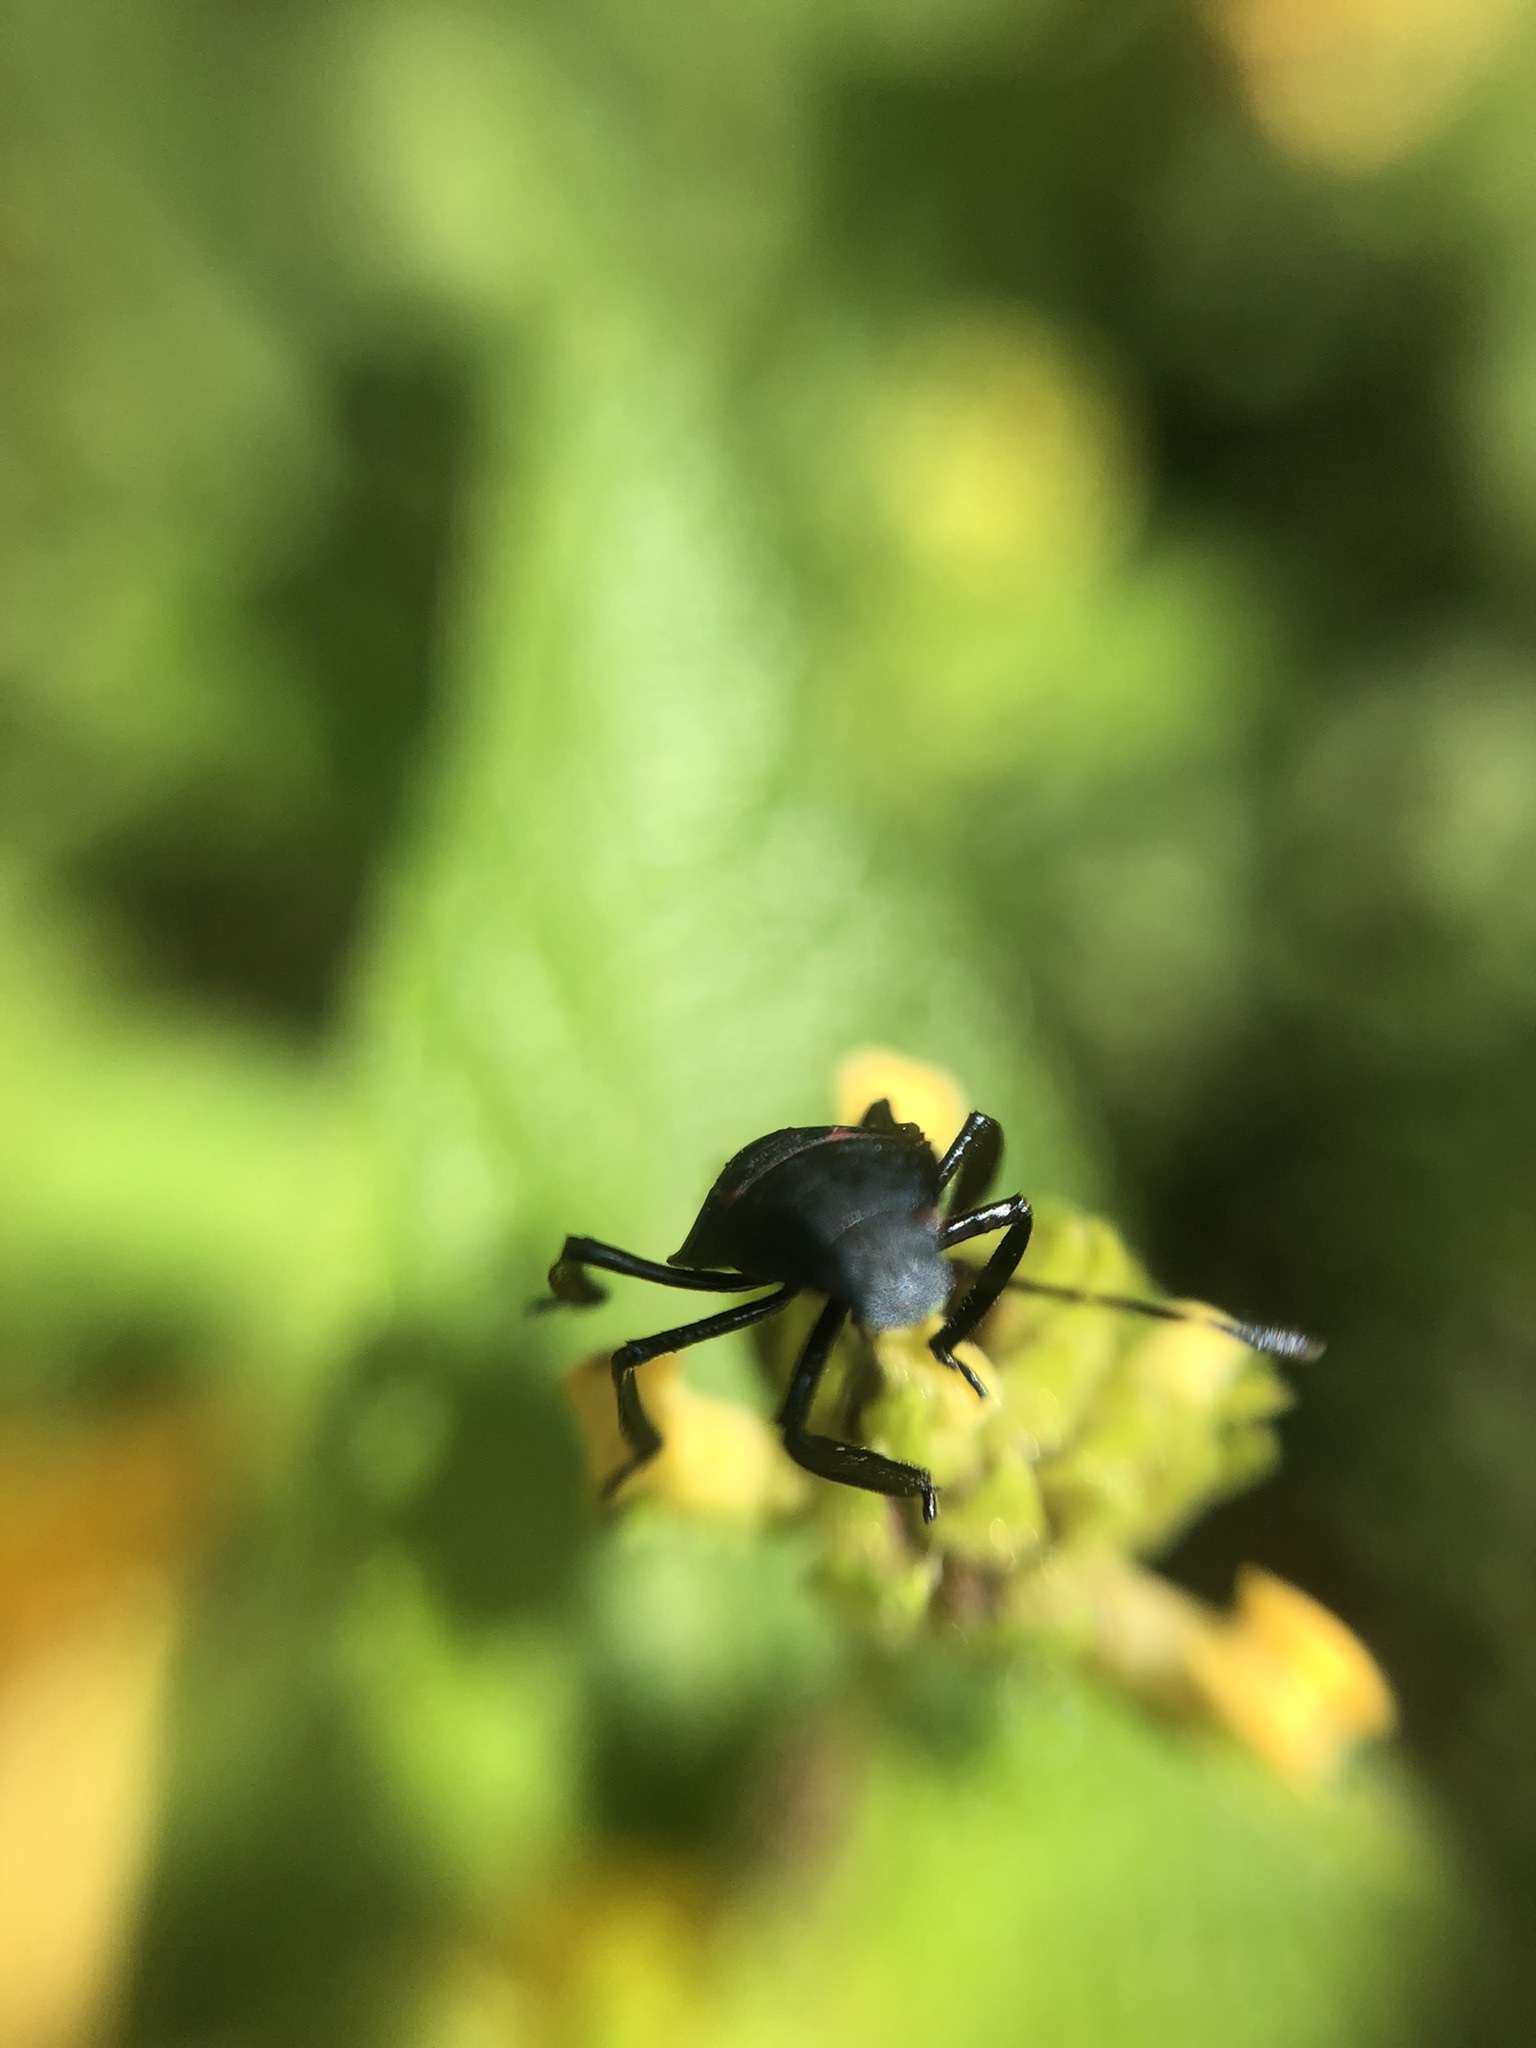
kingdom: Animalia
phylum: Arthropoda
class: Insecta
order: Hemiptera
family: Pentatomidae
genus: Pellaea
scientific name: Pellaea stictica
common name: Stink bug
